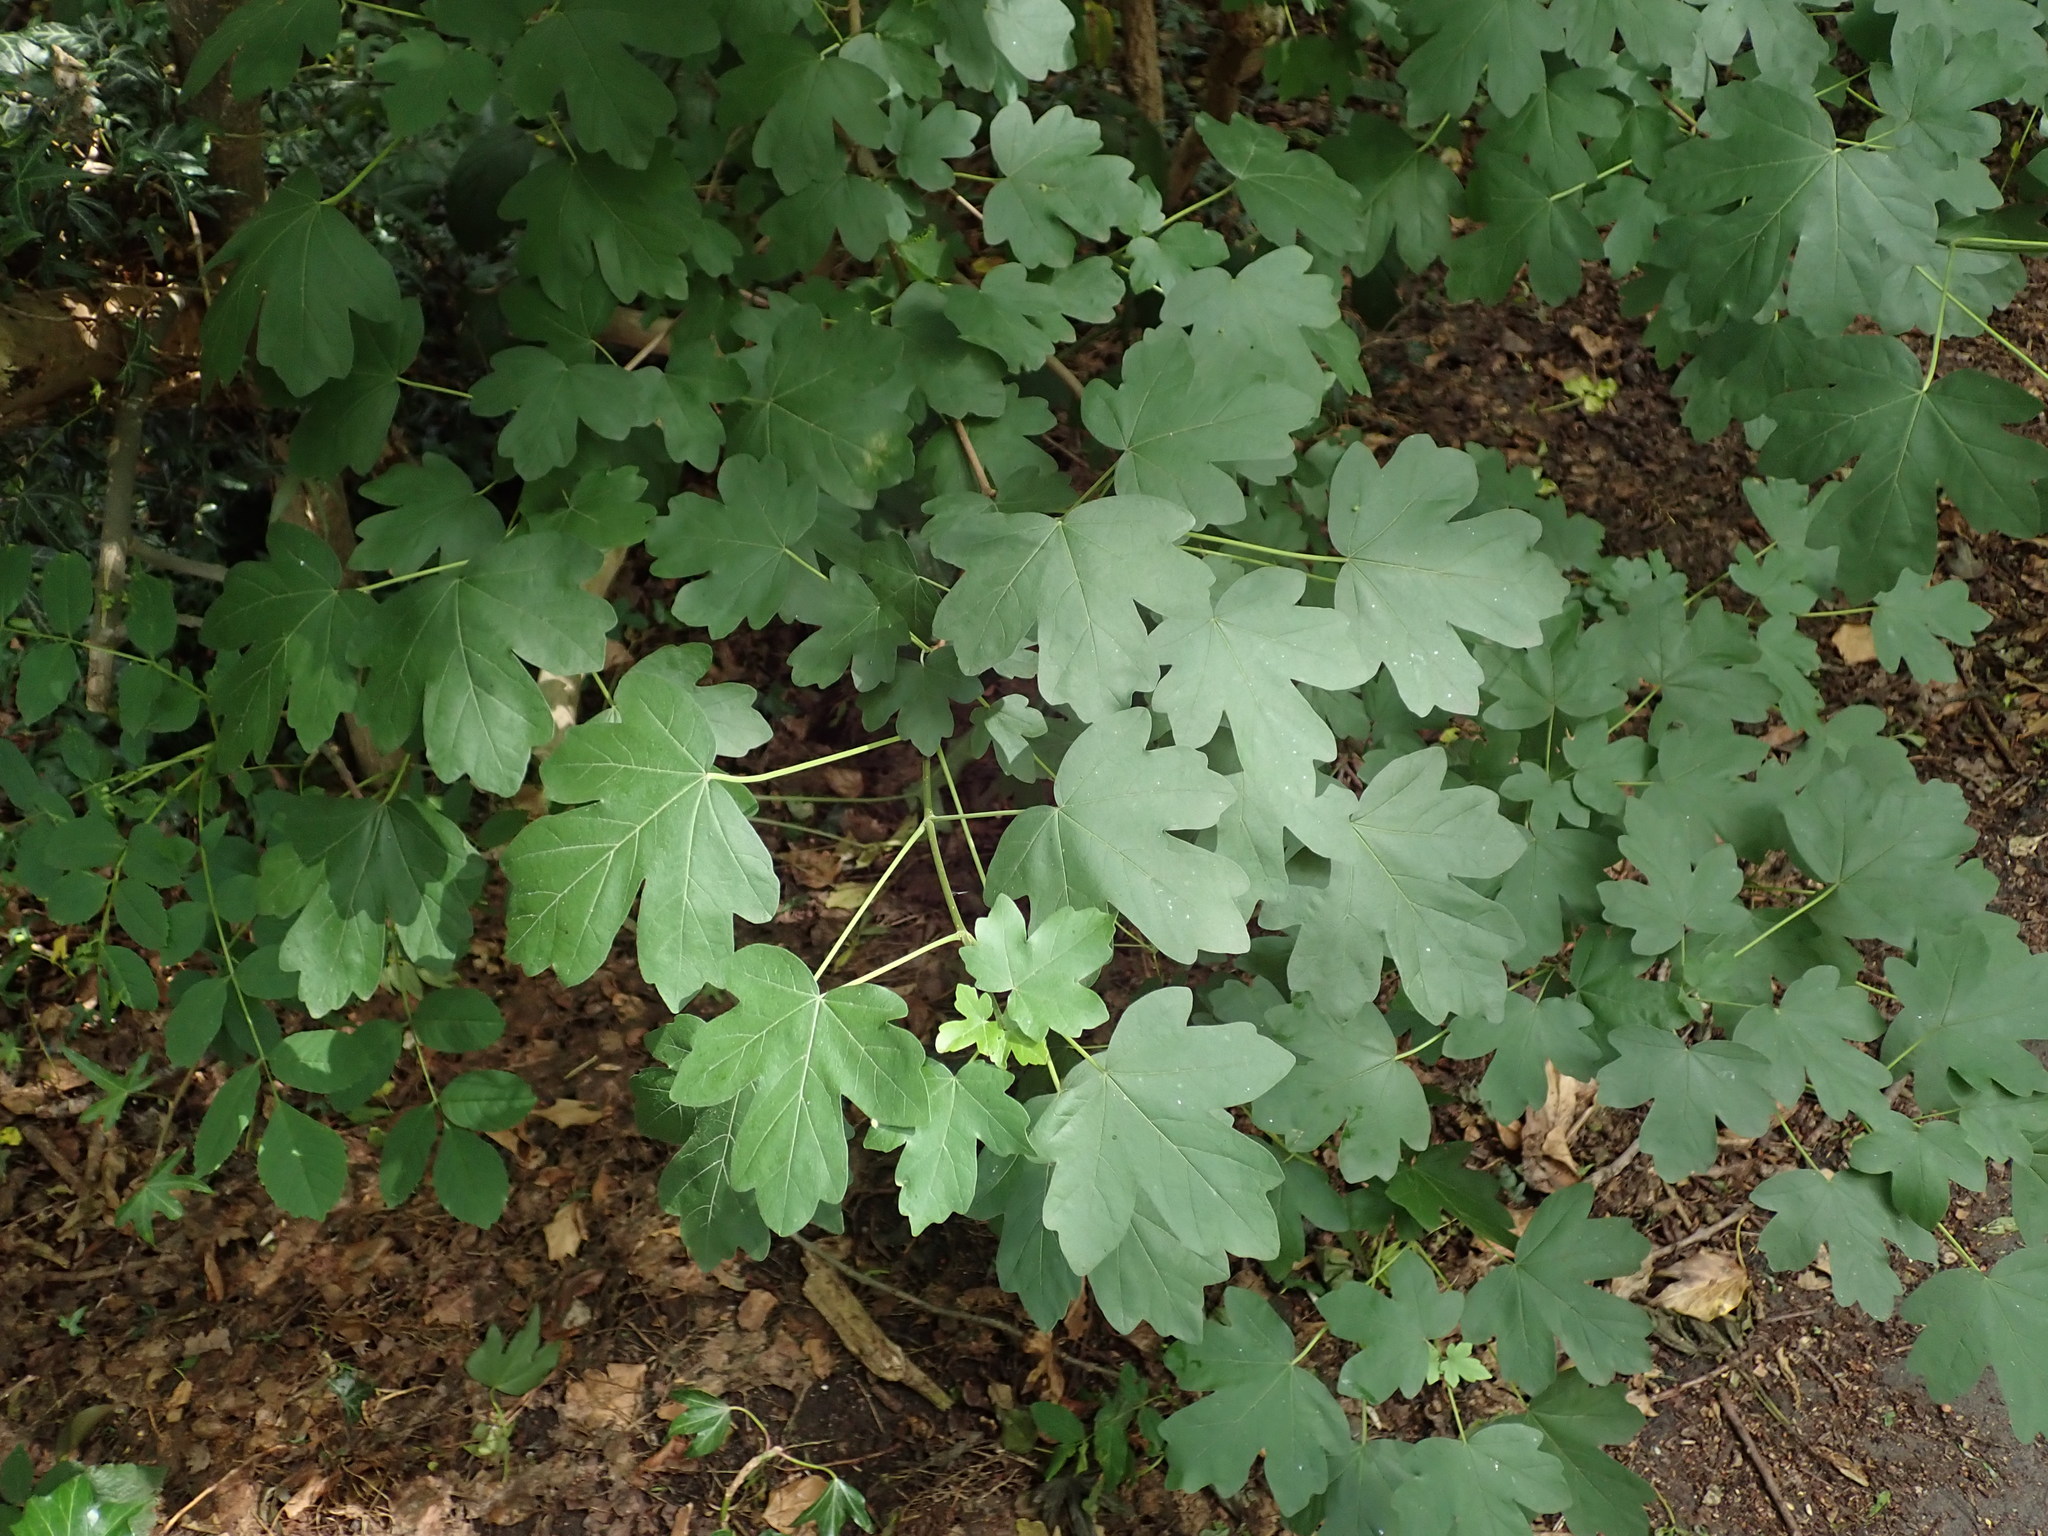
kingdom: Plantae
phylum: Tracheophyta
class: Magnoliopsida
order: Sapindales
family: Sapindaceae
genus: Acer
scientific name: Acer campestre
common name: Field maple
